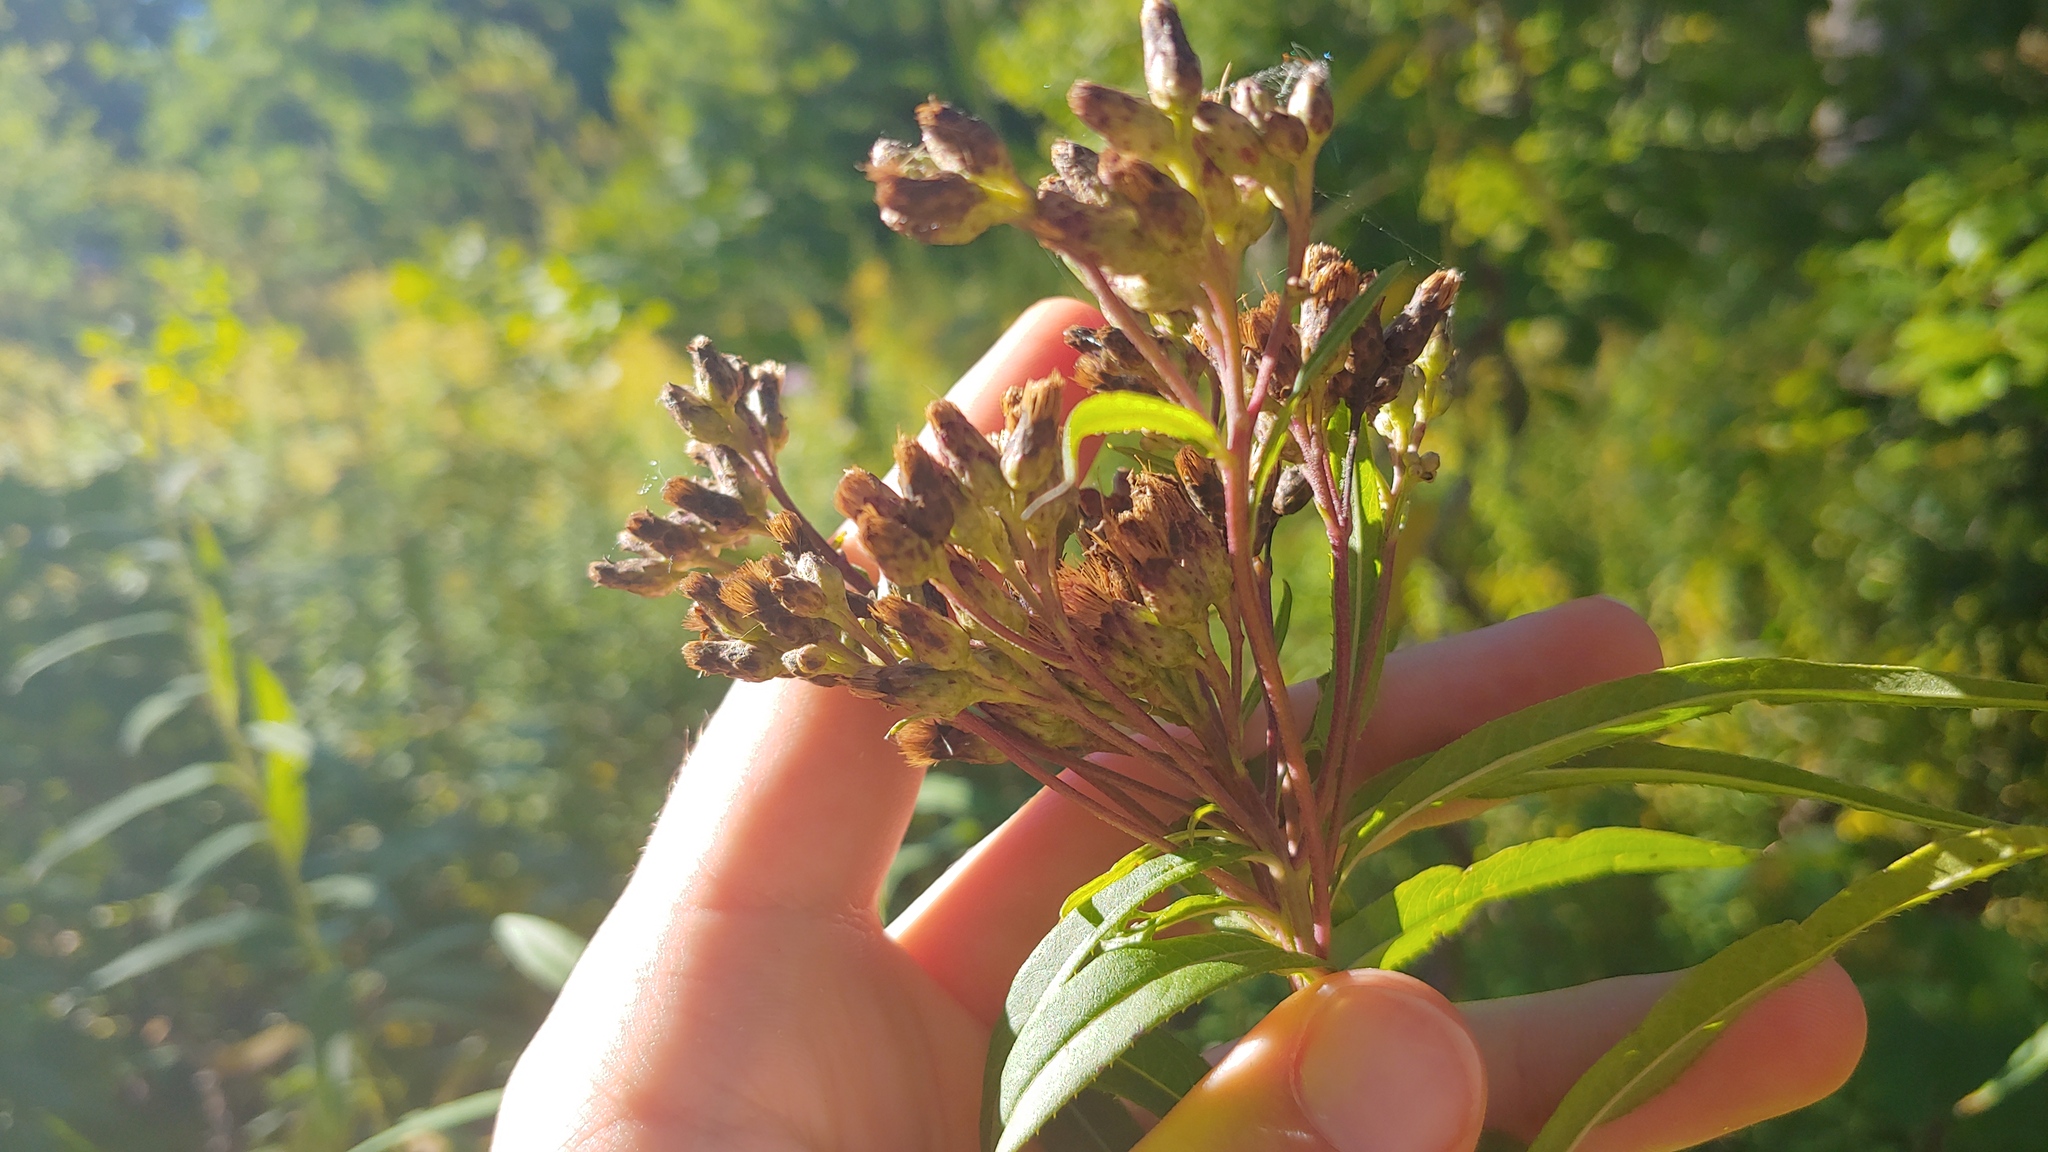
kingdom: Plantae
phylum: Tracheophyta
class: Magnoliopsida
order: Asterales
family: Asteraceae
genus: Vernonia
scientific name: Vernonia fasciculata
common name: Fascicled ironweed
